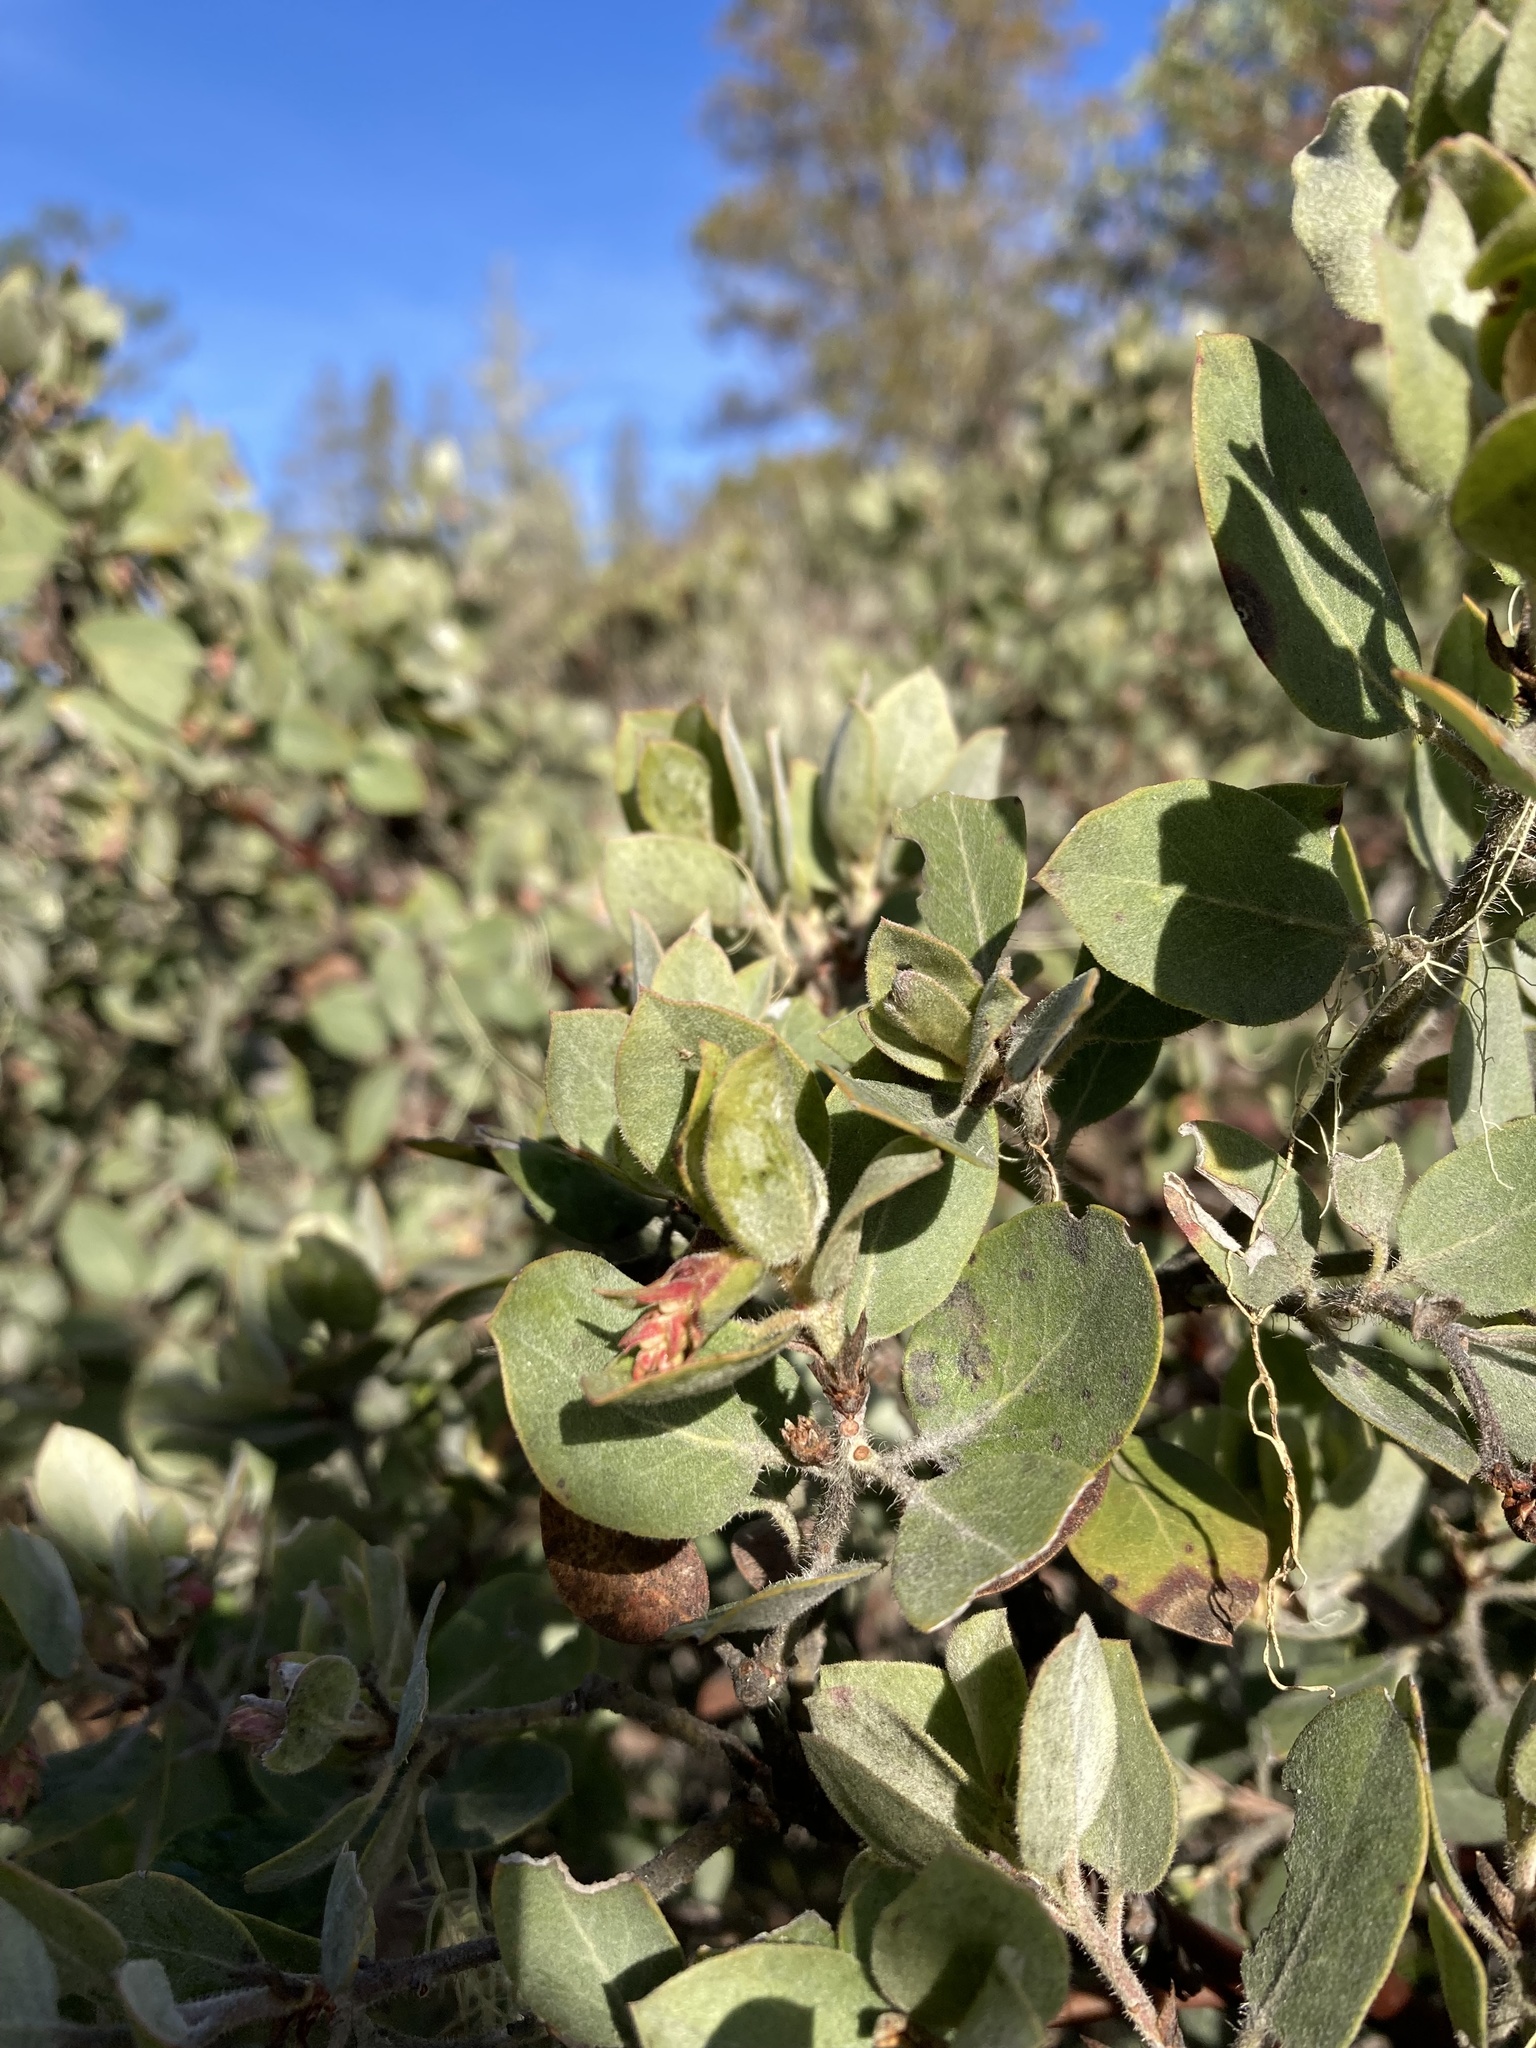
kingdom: Plantae
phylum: Tracheophyta
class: Magnoliopsida
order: Ericales
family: Ericaceae
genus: Arctostaphylos
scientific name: Arctostaphylos columbiana
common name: Bristly bearberry
